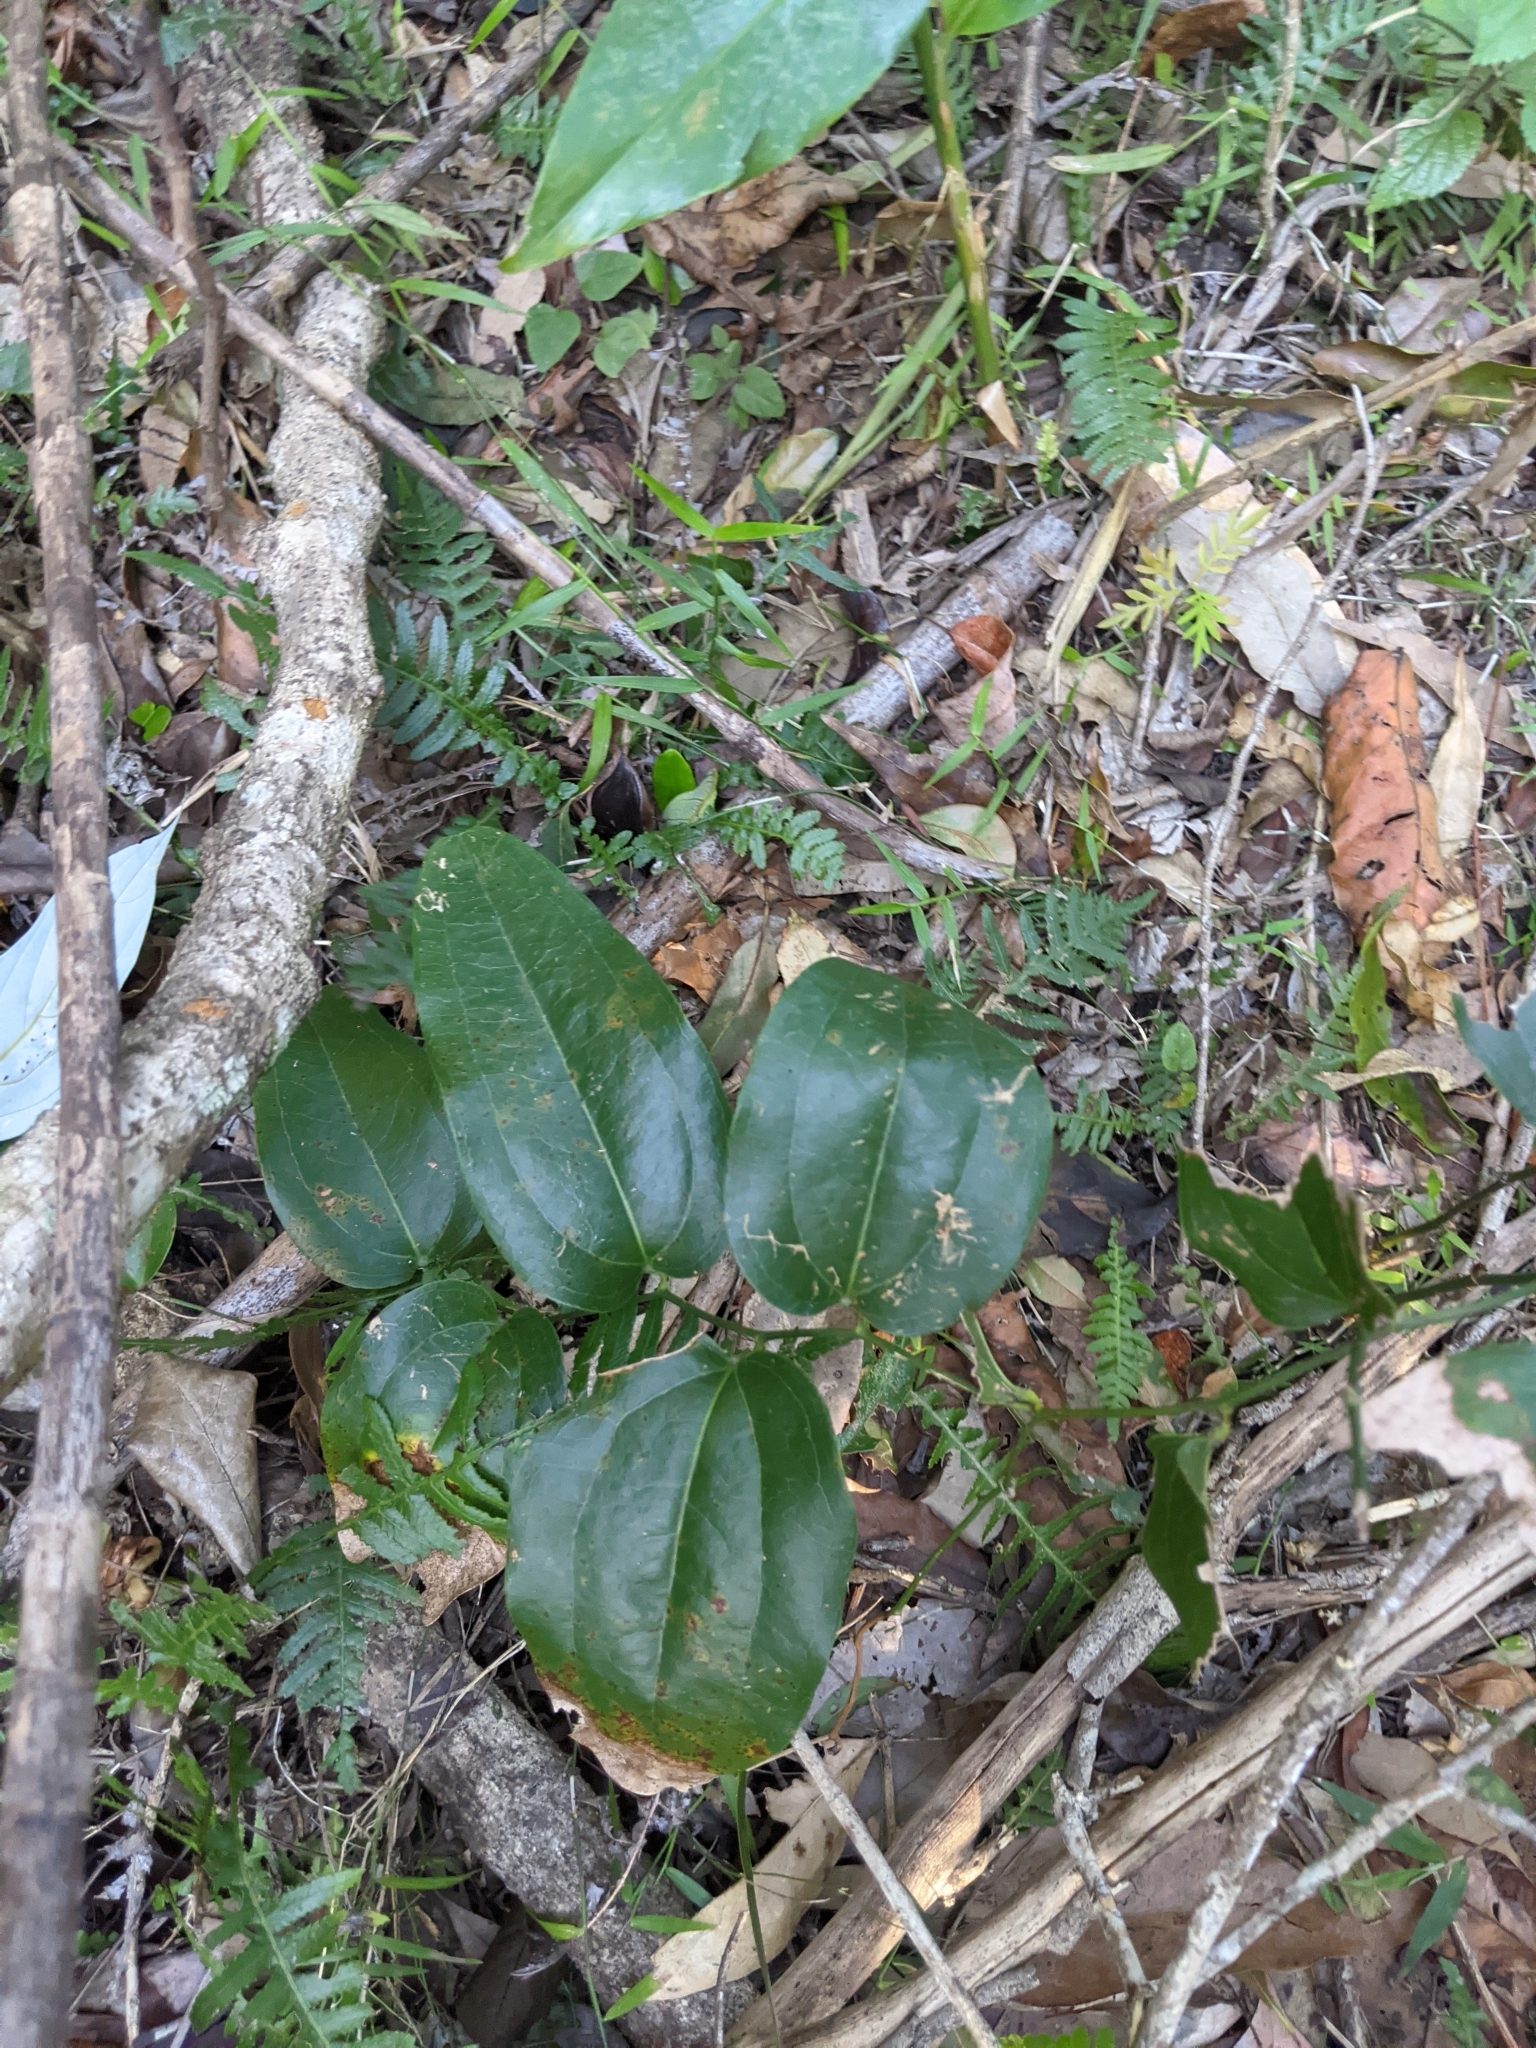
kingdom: Plantae
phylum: Tracheophyta
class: Liliopsida
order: Liliales
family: Smilacaceae
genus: Smilax
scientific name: Smilax australis
